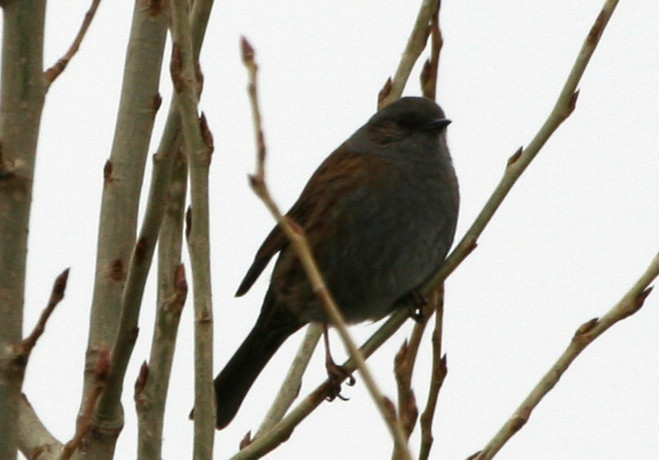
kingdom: Animalia
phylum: Chordata
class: Aves
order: Passeriformes
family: Prunellidae
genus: Prunella
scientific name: Prunella modularis
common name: Dunnock
